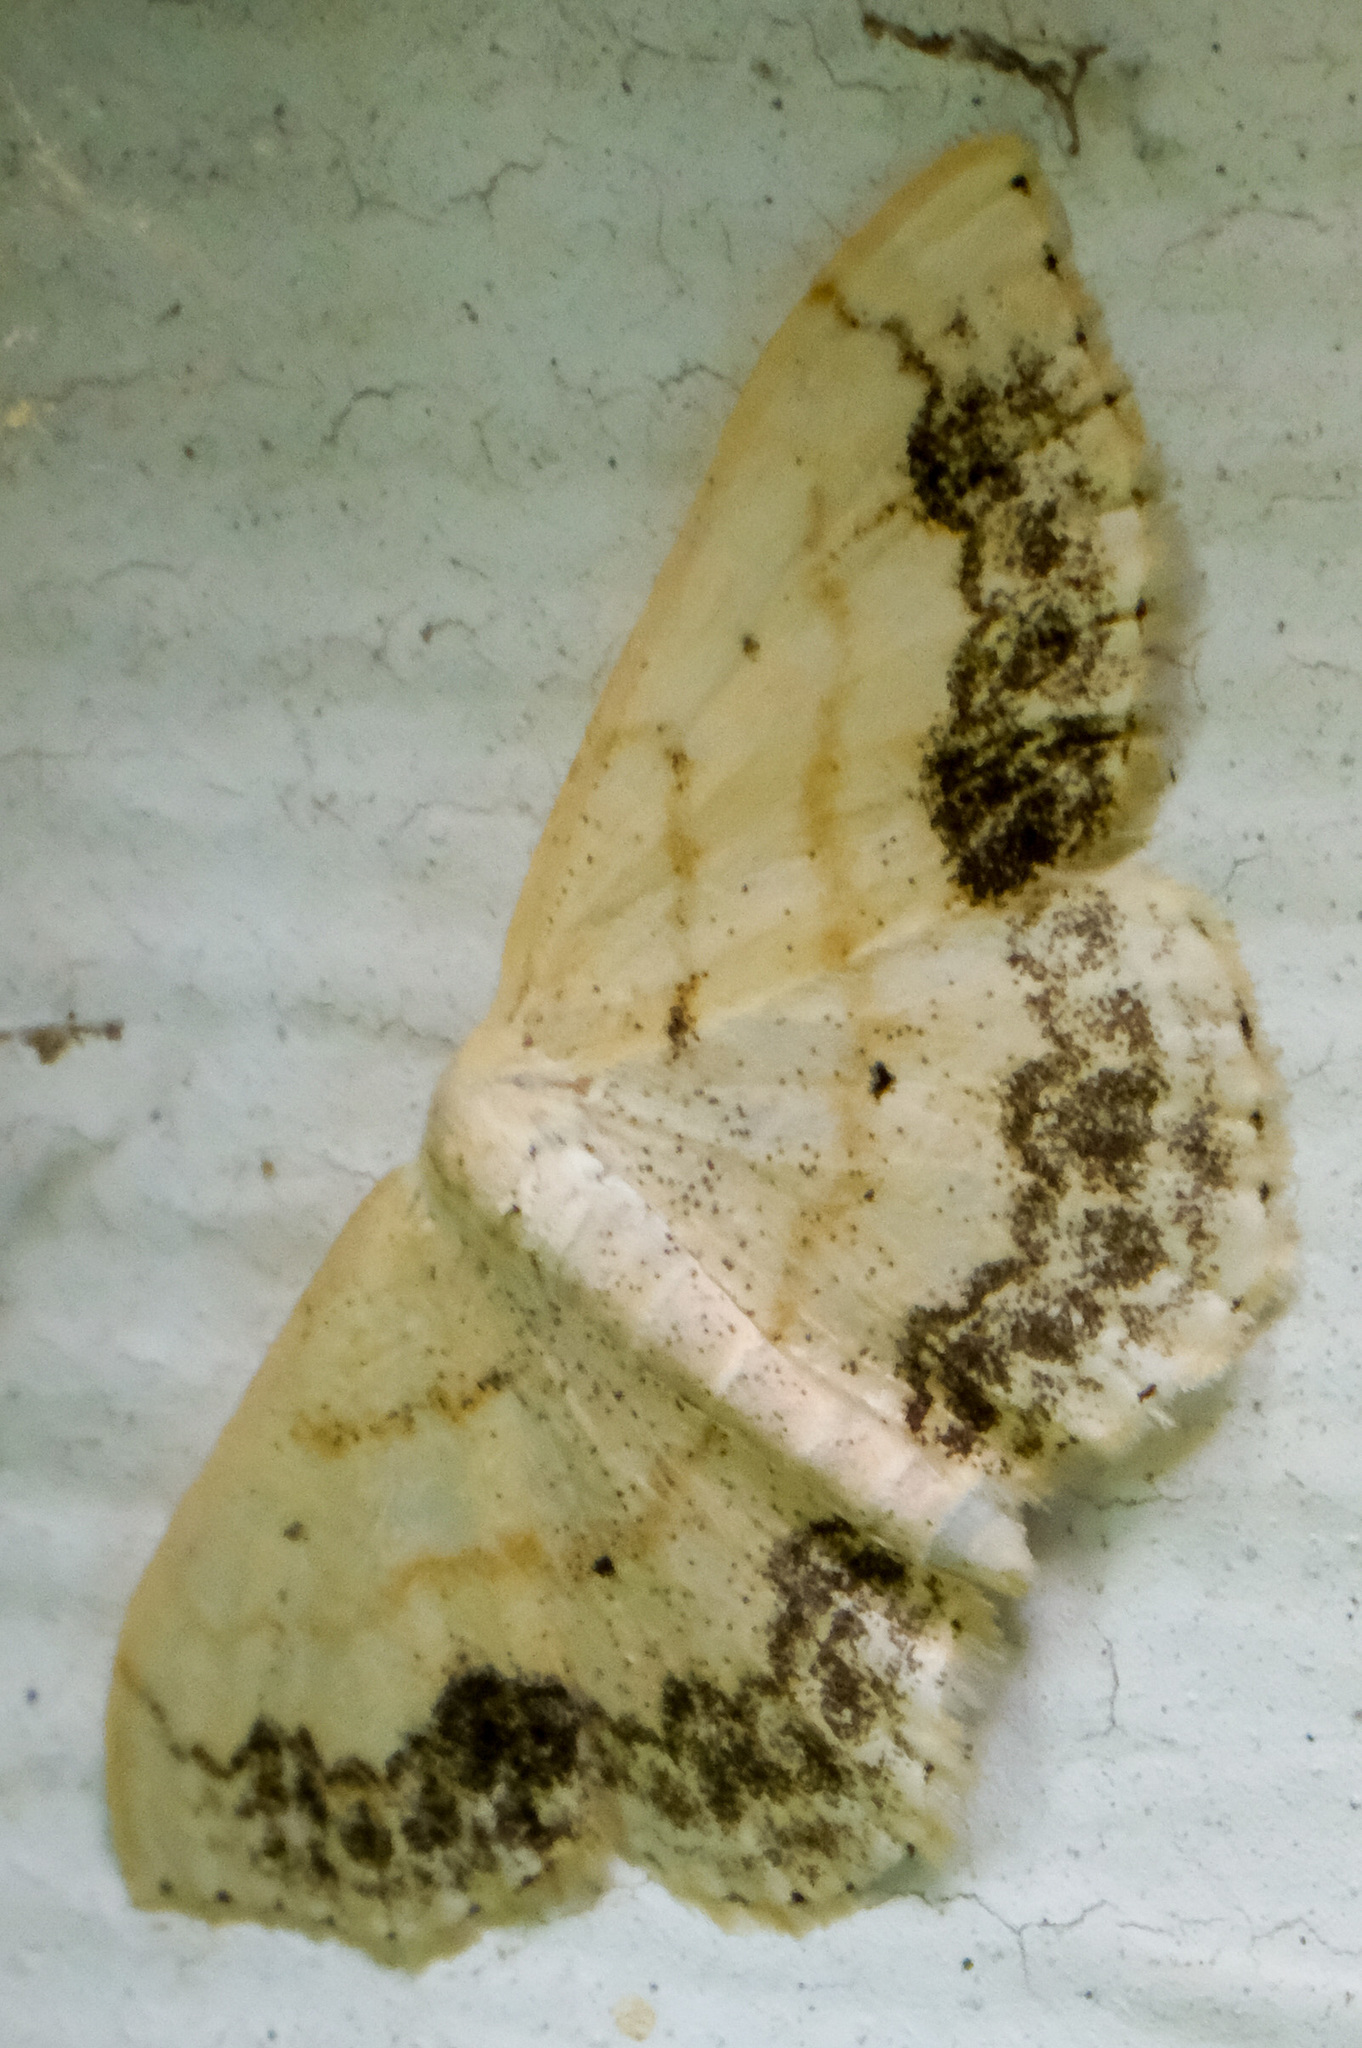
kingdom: Animalia
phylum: Arthropoda
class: Insecta
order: Lepidoptera
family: Geometridae
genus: Scopula
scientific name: Scopula limboundata
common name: Large lace border
